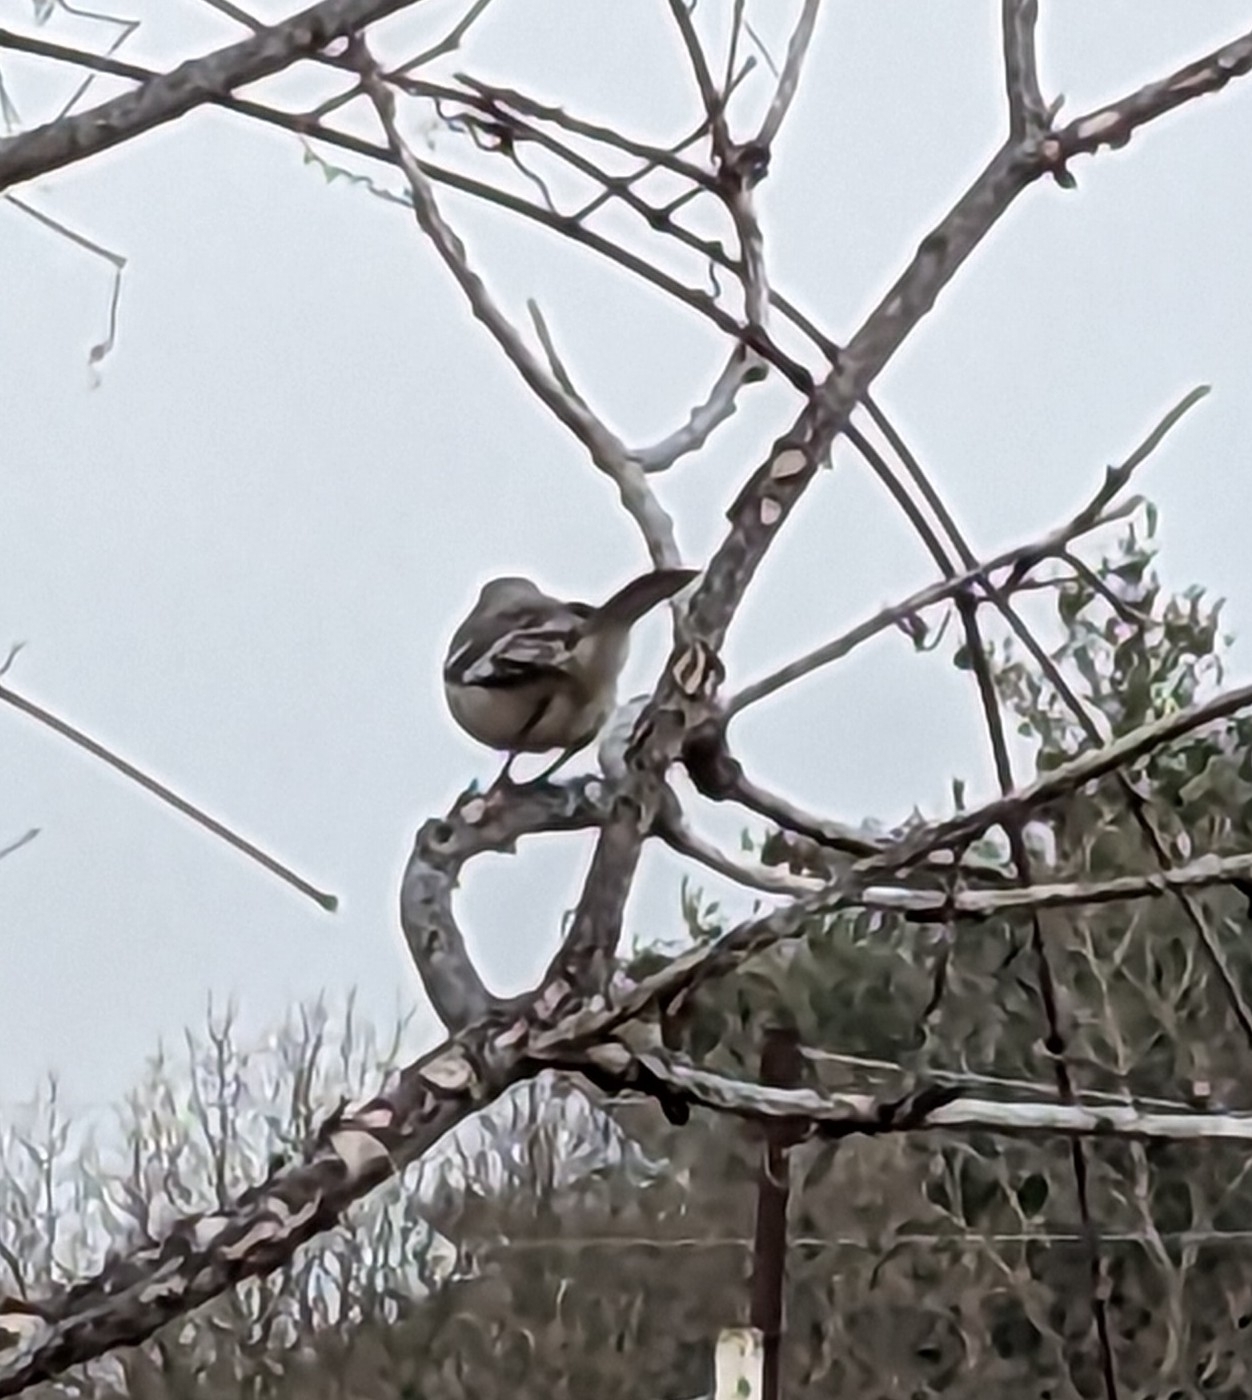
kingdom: Animalia
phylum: Chordata
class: Aves
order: Passeriformes
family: Mimidae
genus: Mimus
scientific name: Mimus polyglottos
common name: Northern mockingbird
